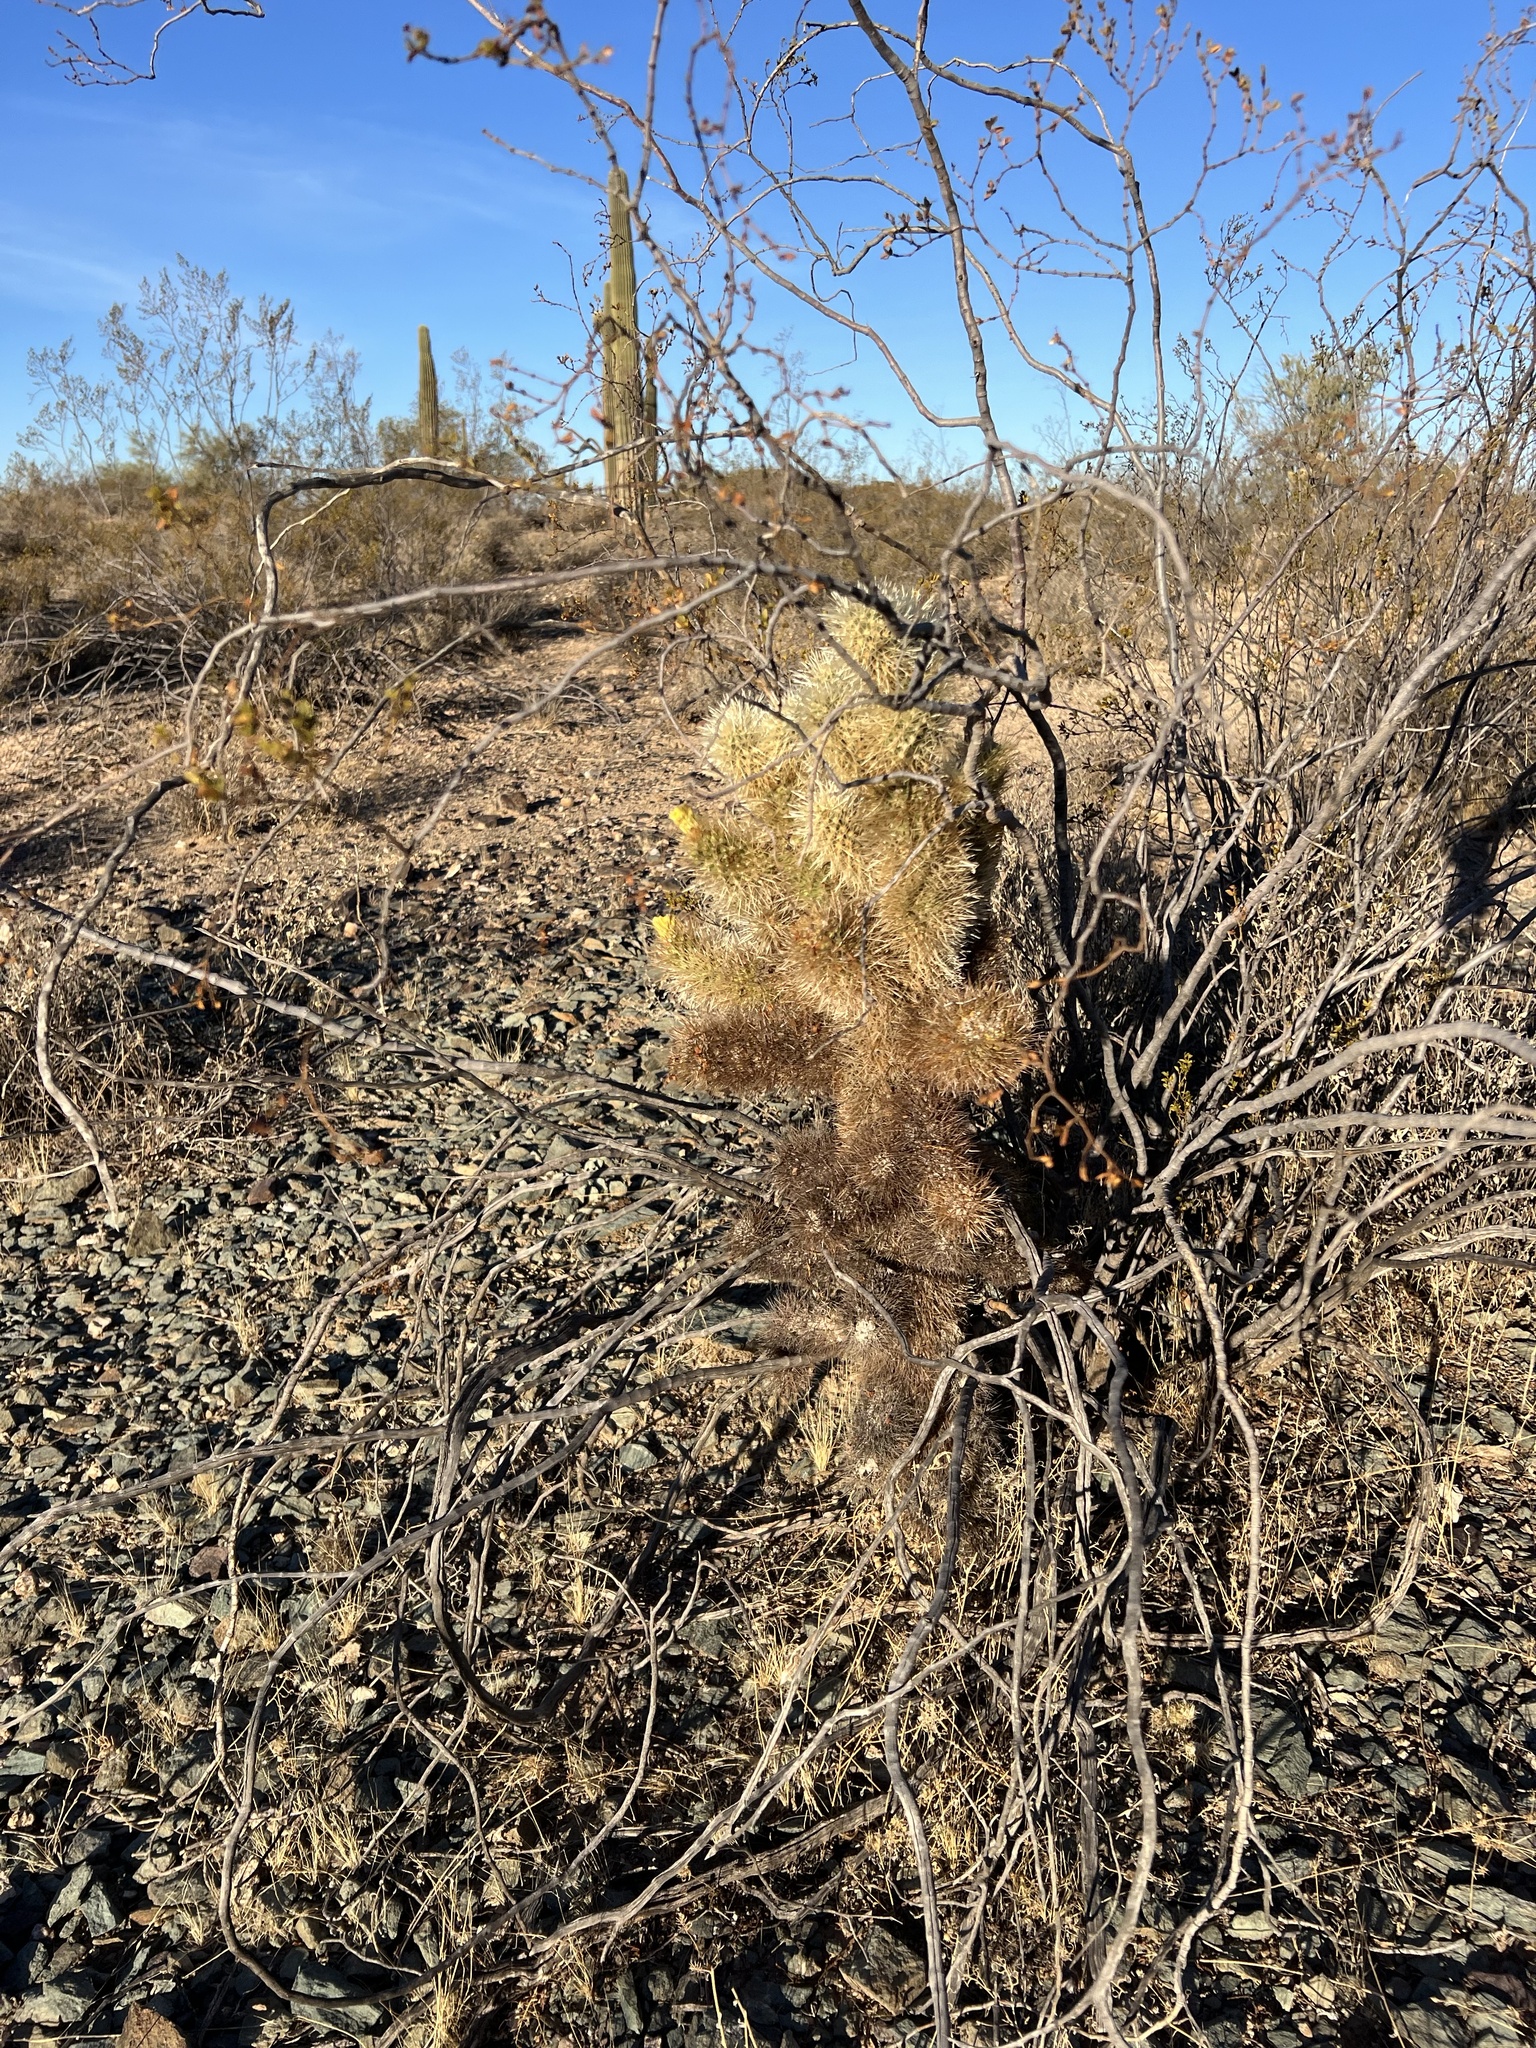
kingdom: Plantae
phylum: Tracheophyta
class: Magnoliopsida
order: Caryophyllales
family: Cactaceae
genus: Cylindropuntia
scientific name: Cylindropuntia fosbergii
